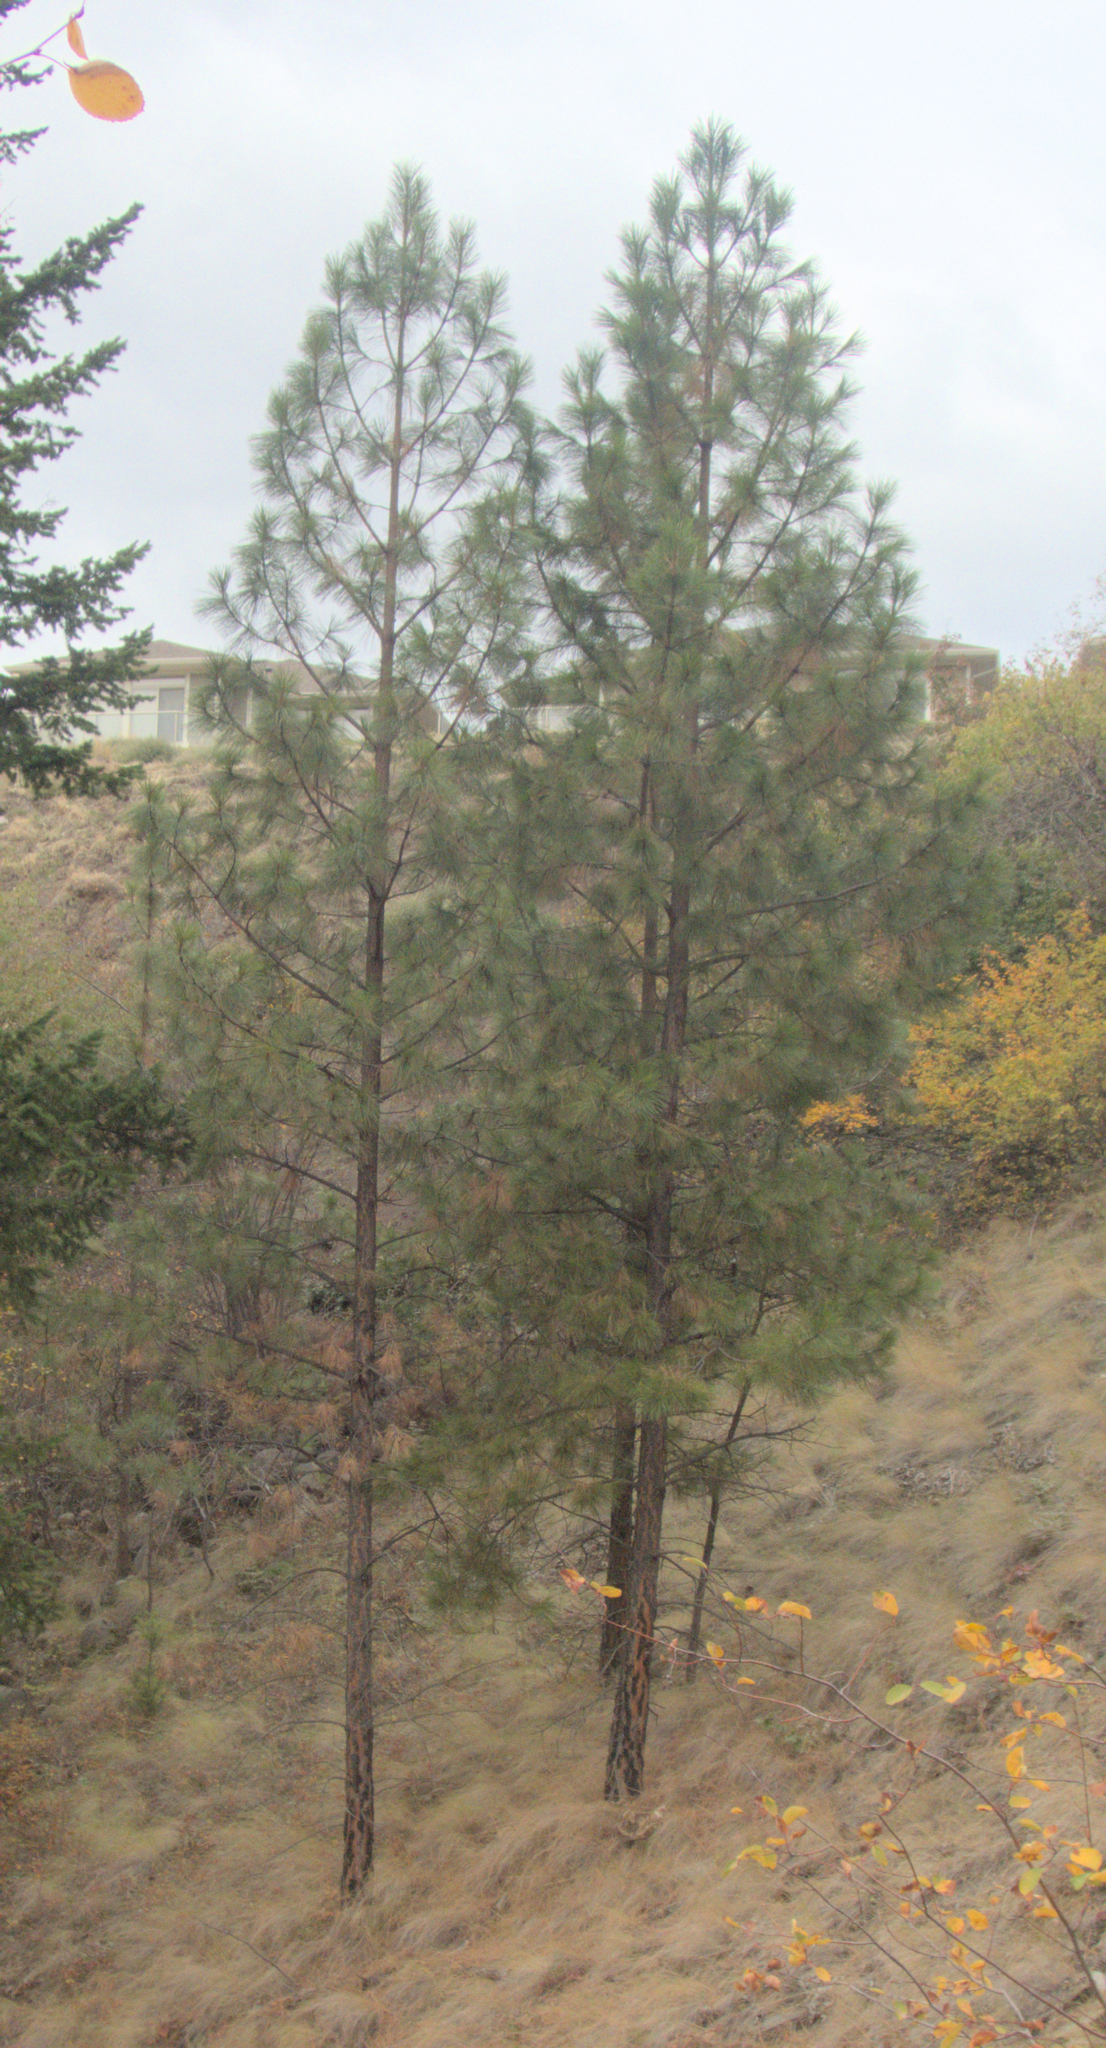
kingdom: Plantae
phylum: Tracheophyta
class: Pinopsida
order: Pinales
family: Pinaceae
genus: Pinus
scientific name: Pinus ponderosa
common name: Western yellow-pine
